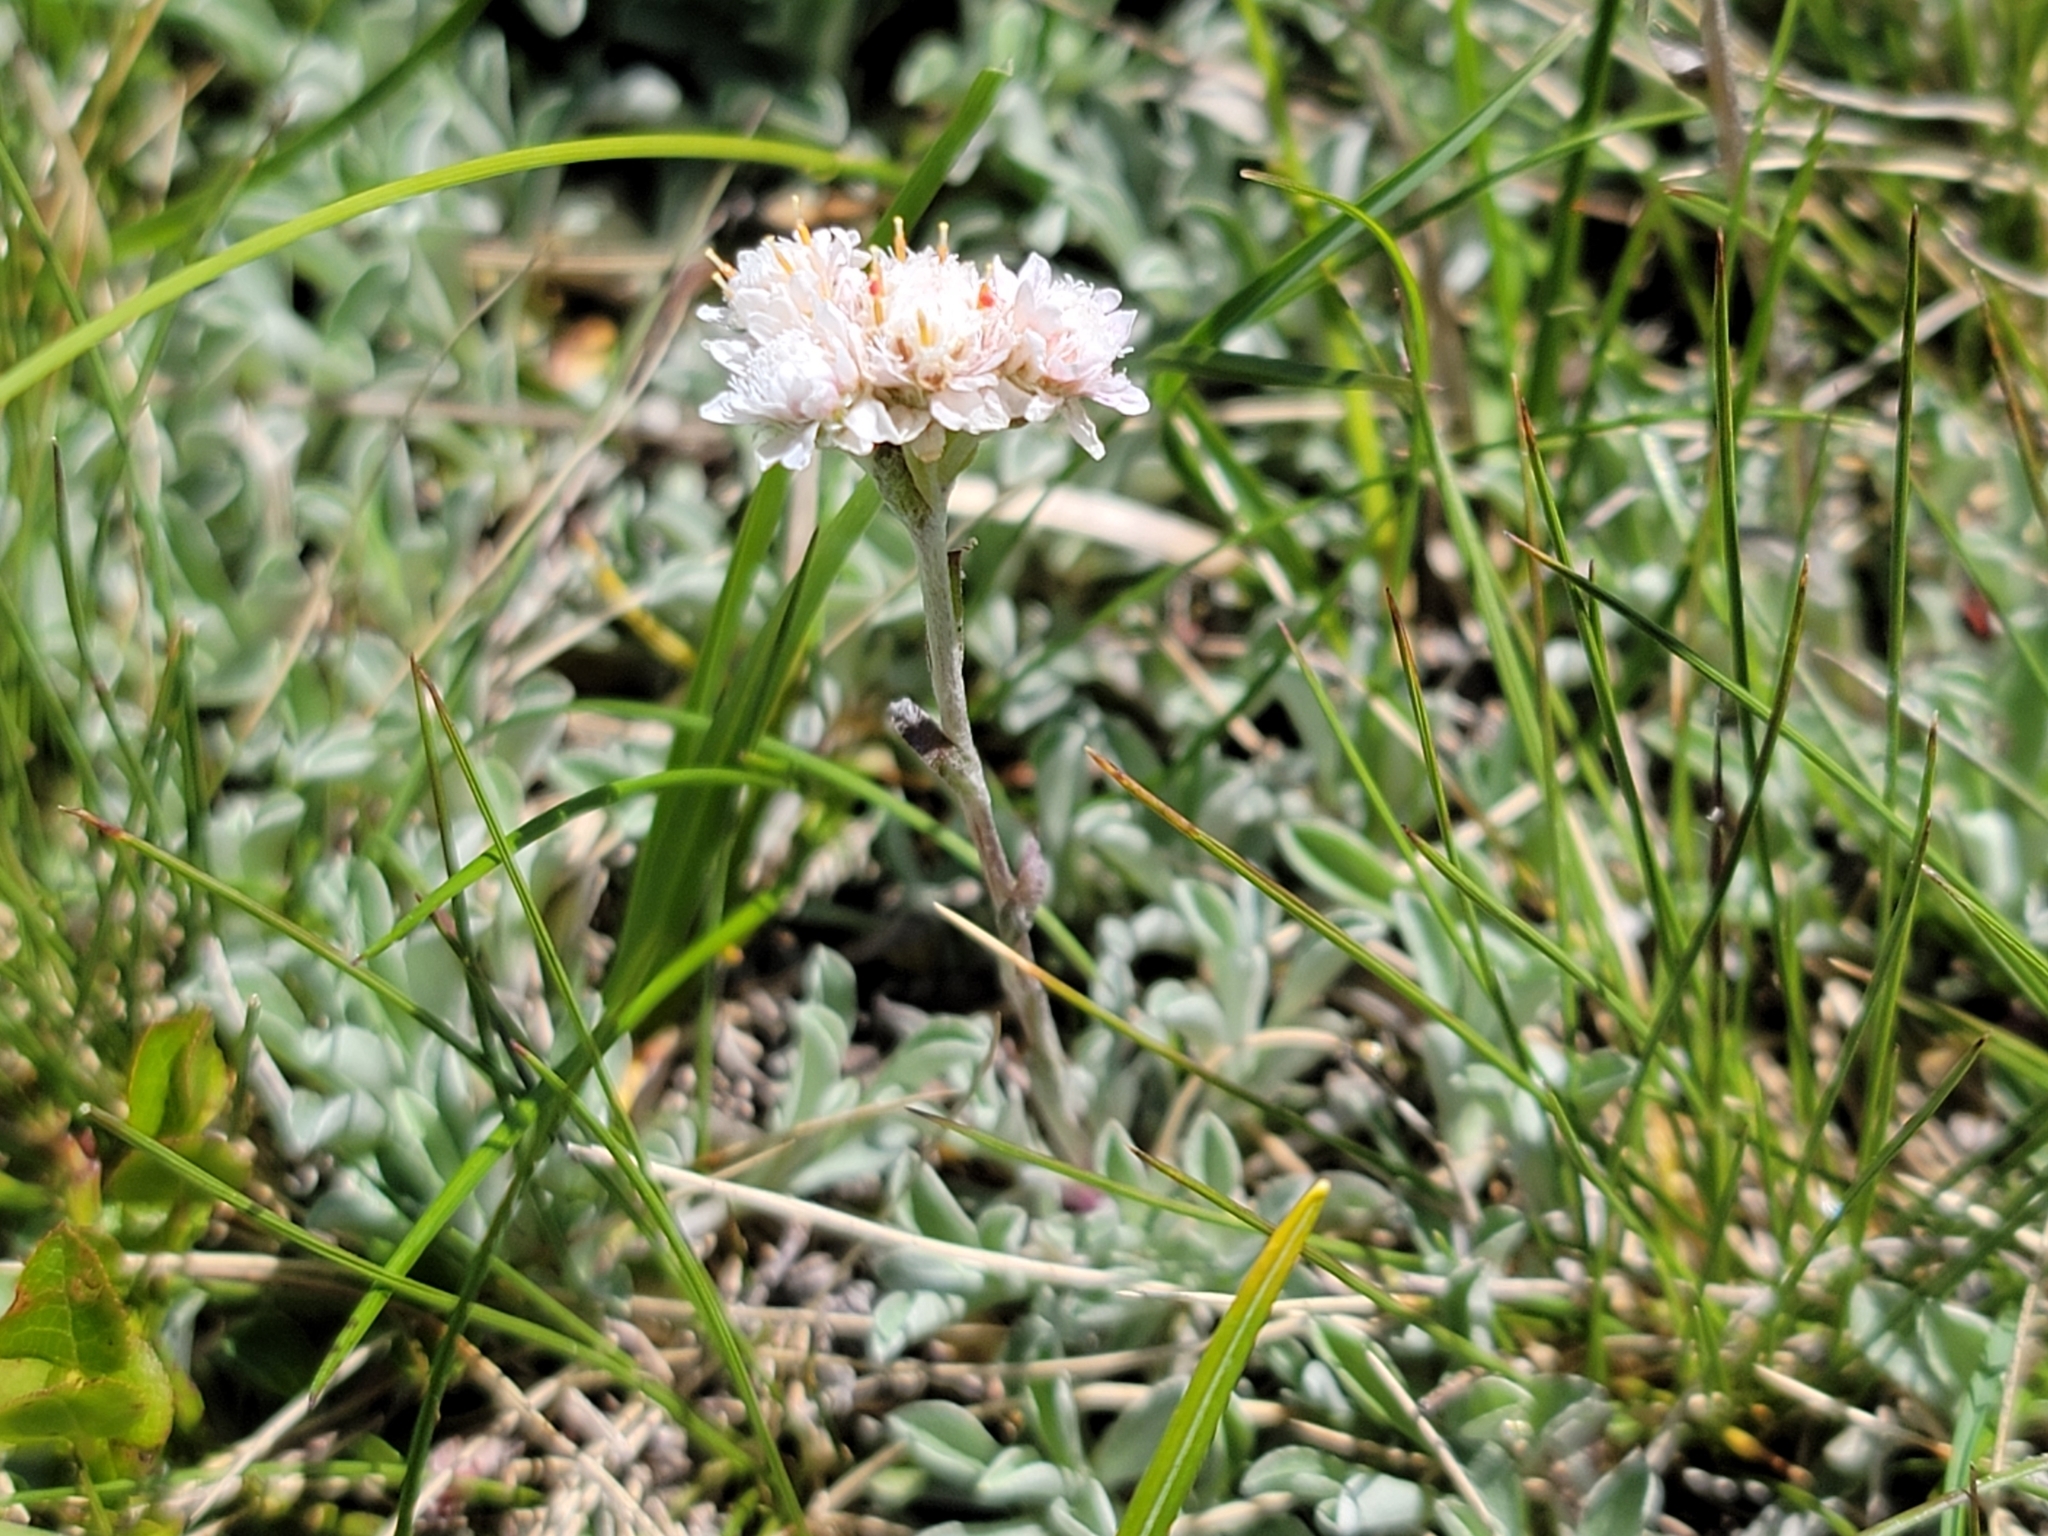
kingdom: Plantae
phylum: Tracheophyta
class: Magnoliopsida
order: Asterales
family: Asteraceae
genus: Antennaria
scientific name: Antennaria dioica
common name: Mountain everlasting
